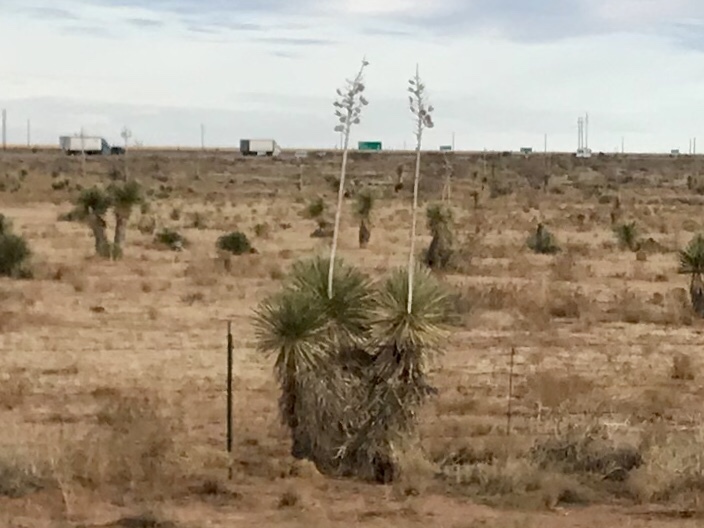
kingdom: Plantae
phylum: Tracheophyta
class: Liliopsida
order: Asparagales
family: Asparagaceae
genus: Yucca
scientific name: Yucca elata
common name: Palmella
